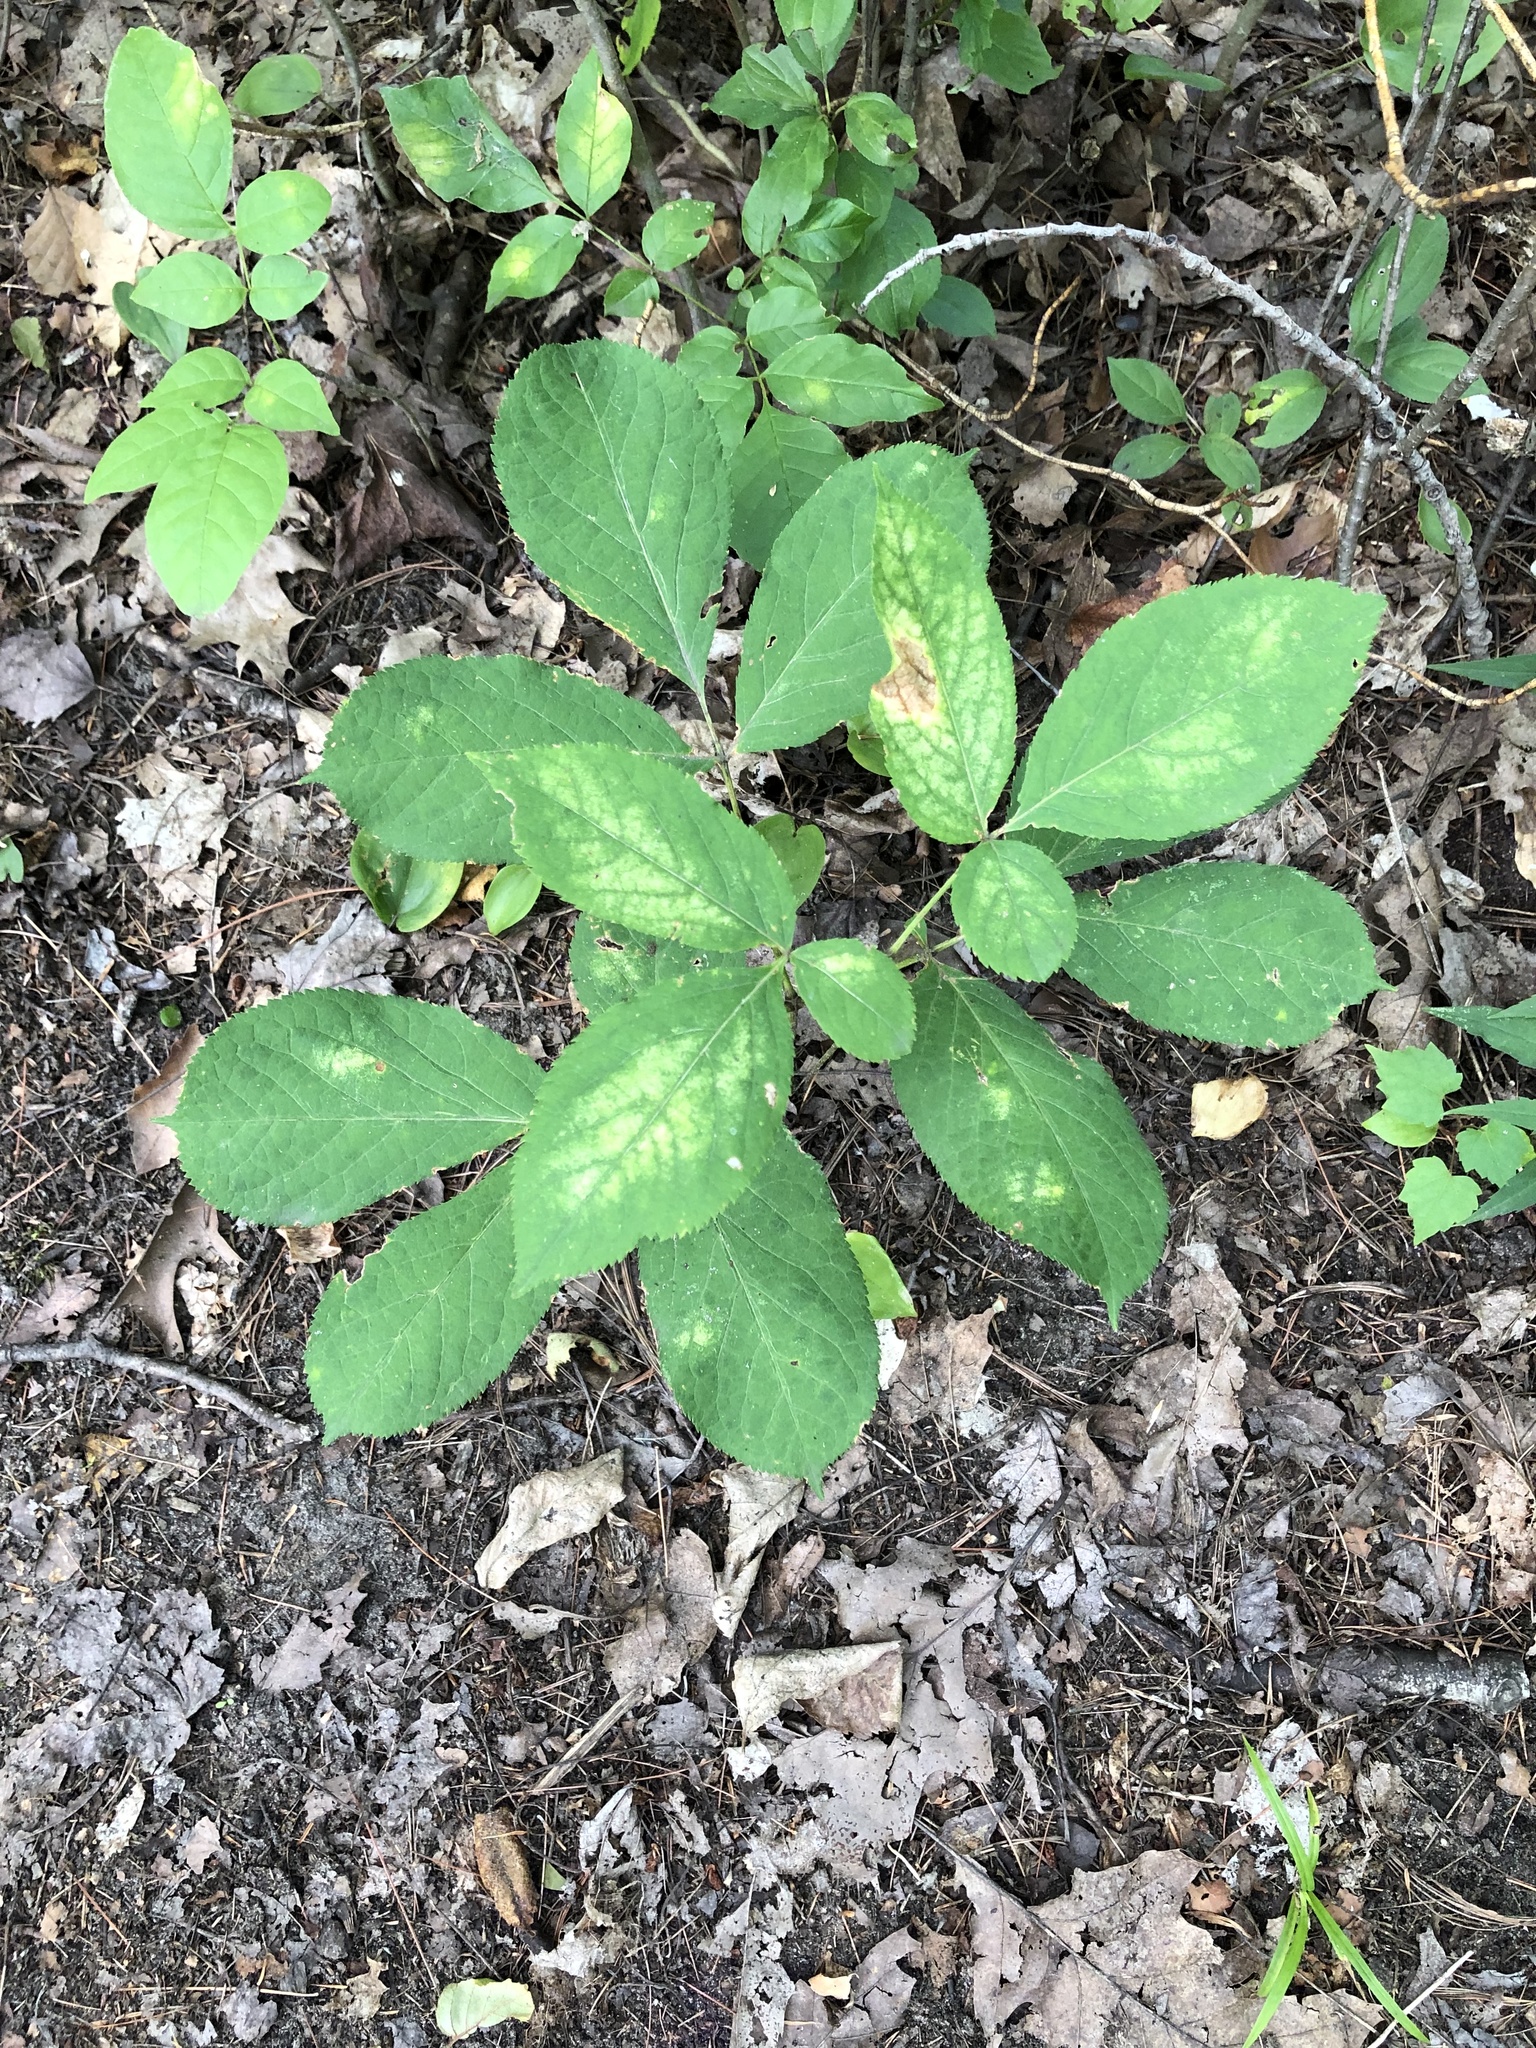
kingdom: Plantae
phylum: Tracheophyta
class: Magnoliopsida
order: Apiales
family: Araliaceae
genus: Aralia
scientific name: Aralia nudicaulis
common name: Wild sarsaparilla
